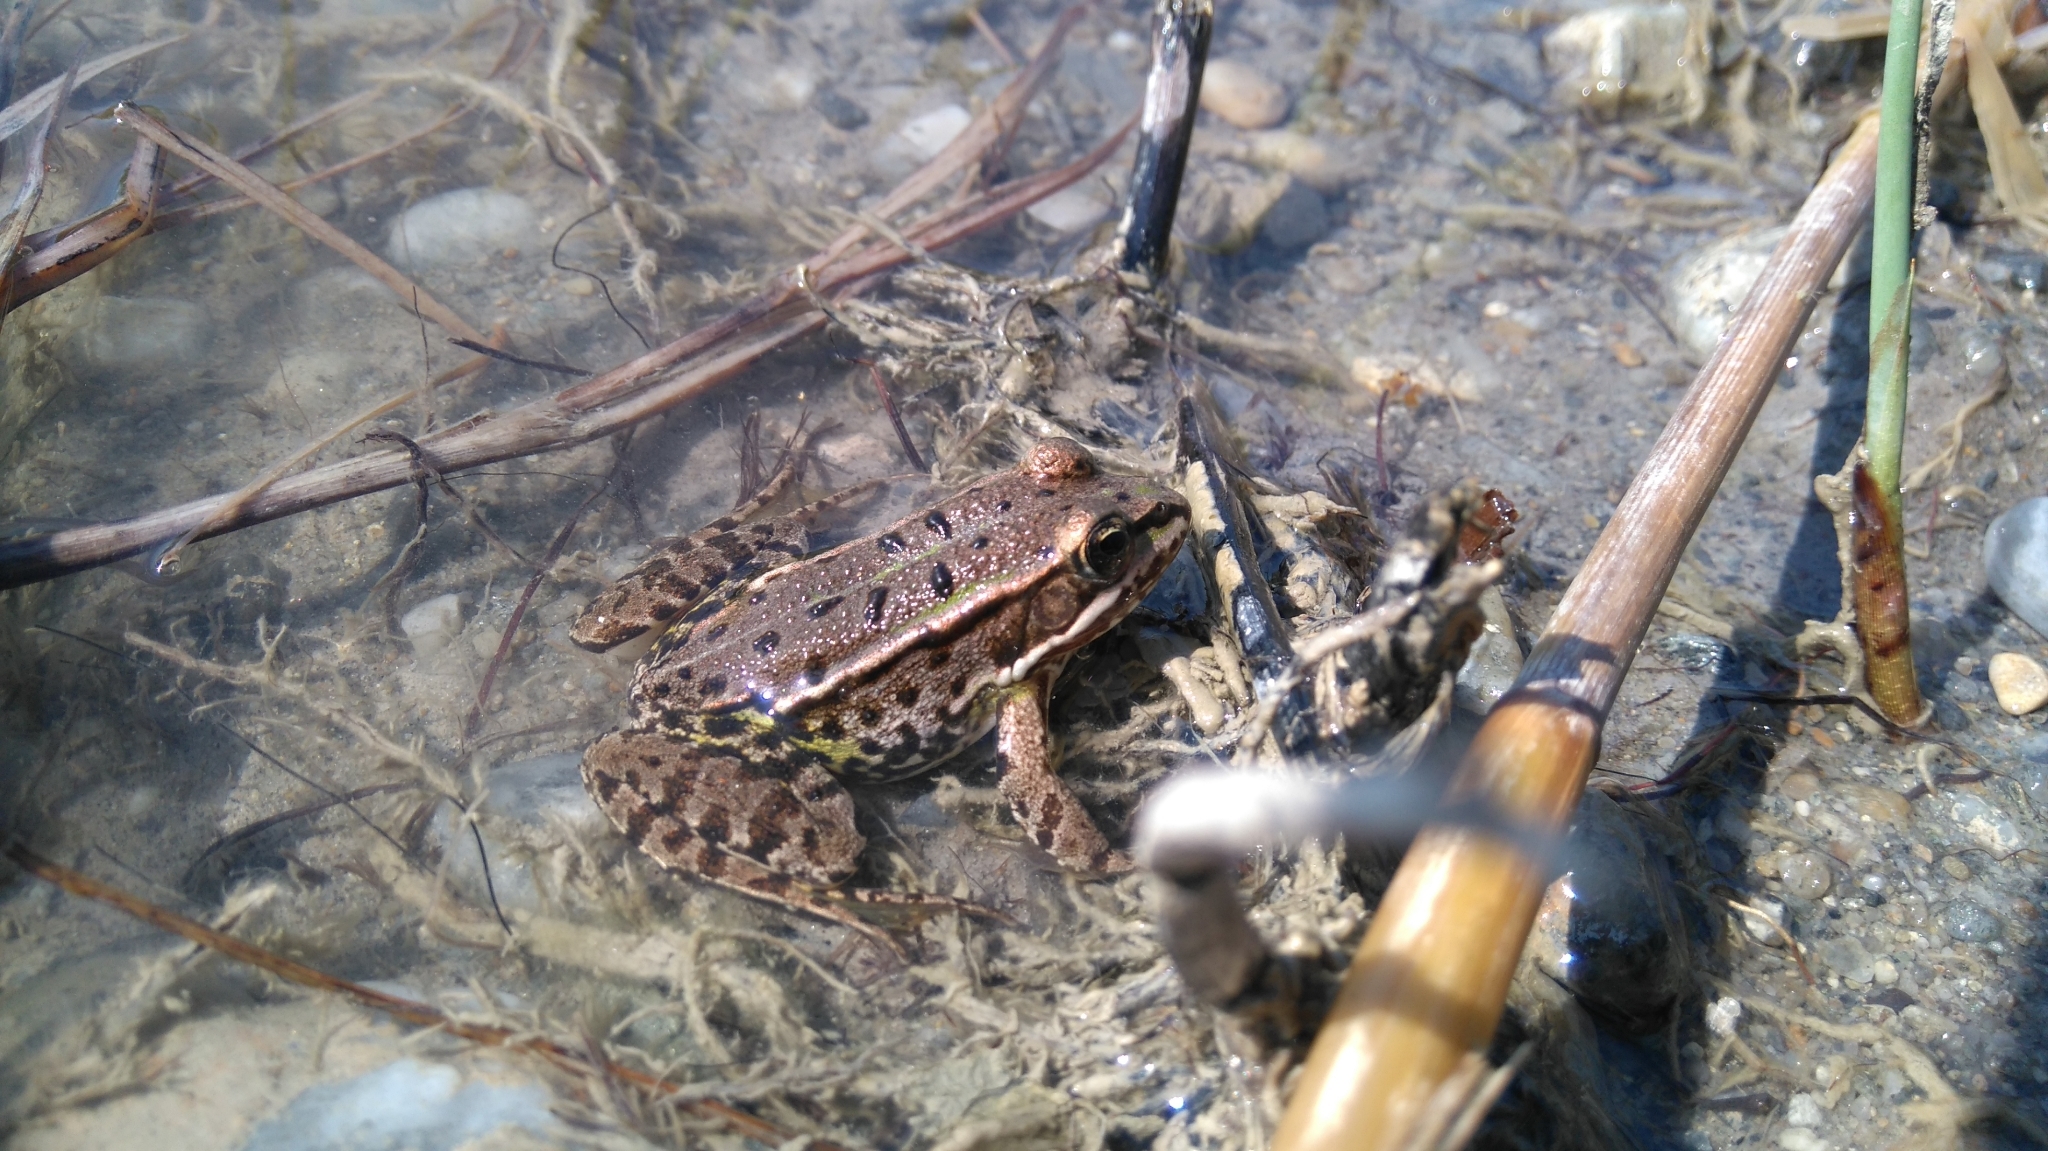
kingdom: Animalia
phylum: Chordata
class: Amphibia
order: Anura
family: Ranidae
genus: Pelophylax
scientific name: Pelophylax
